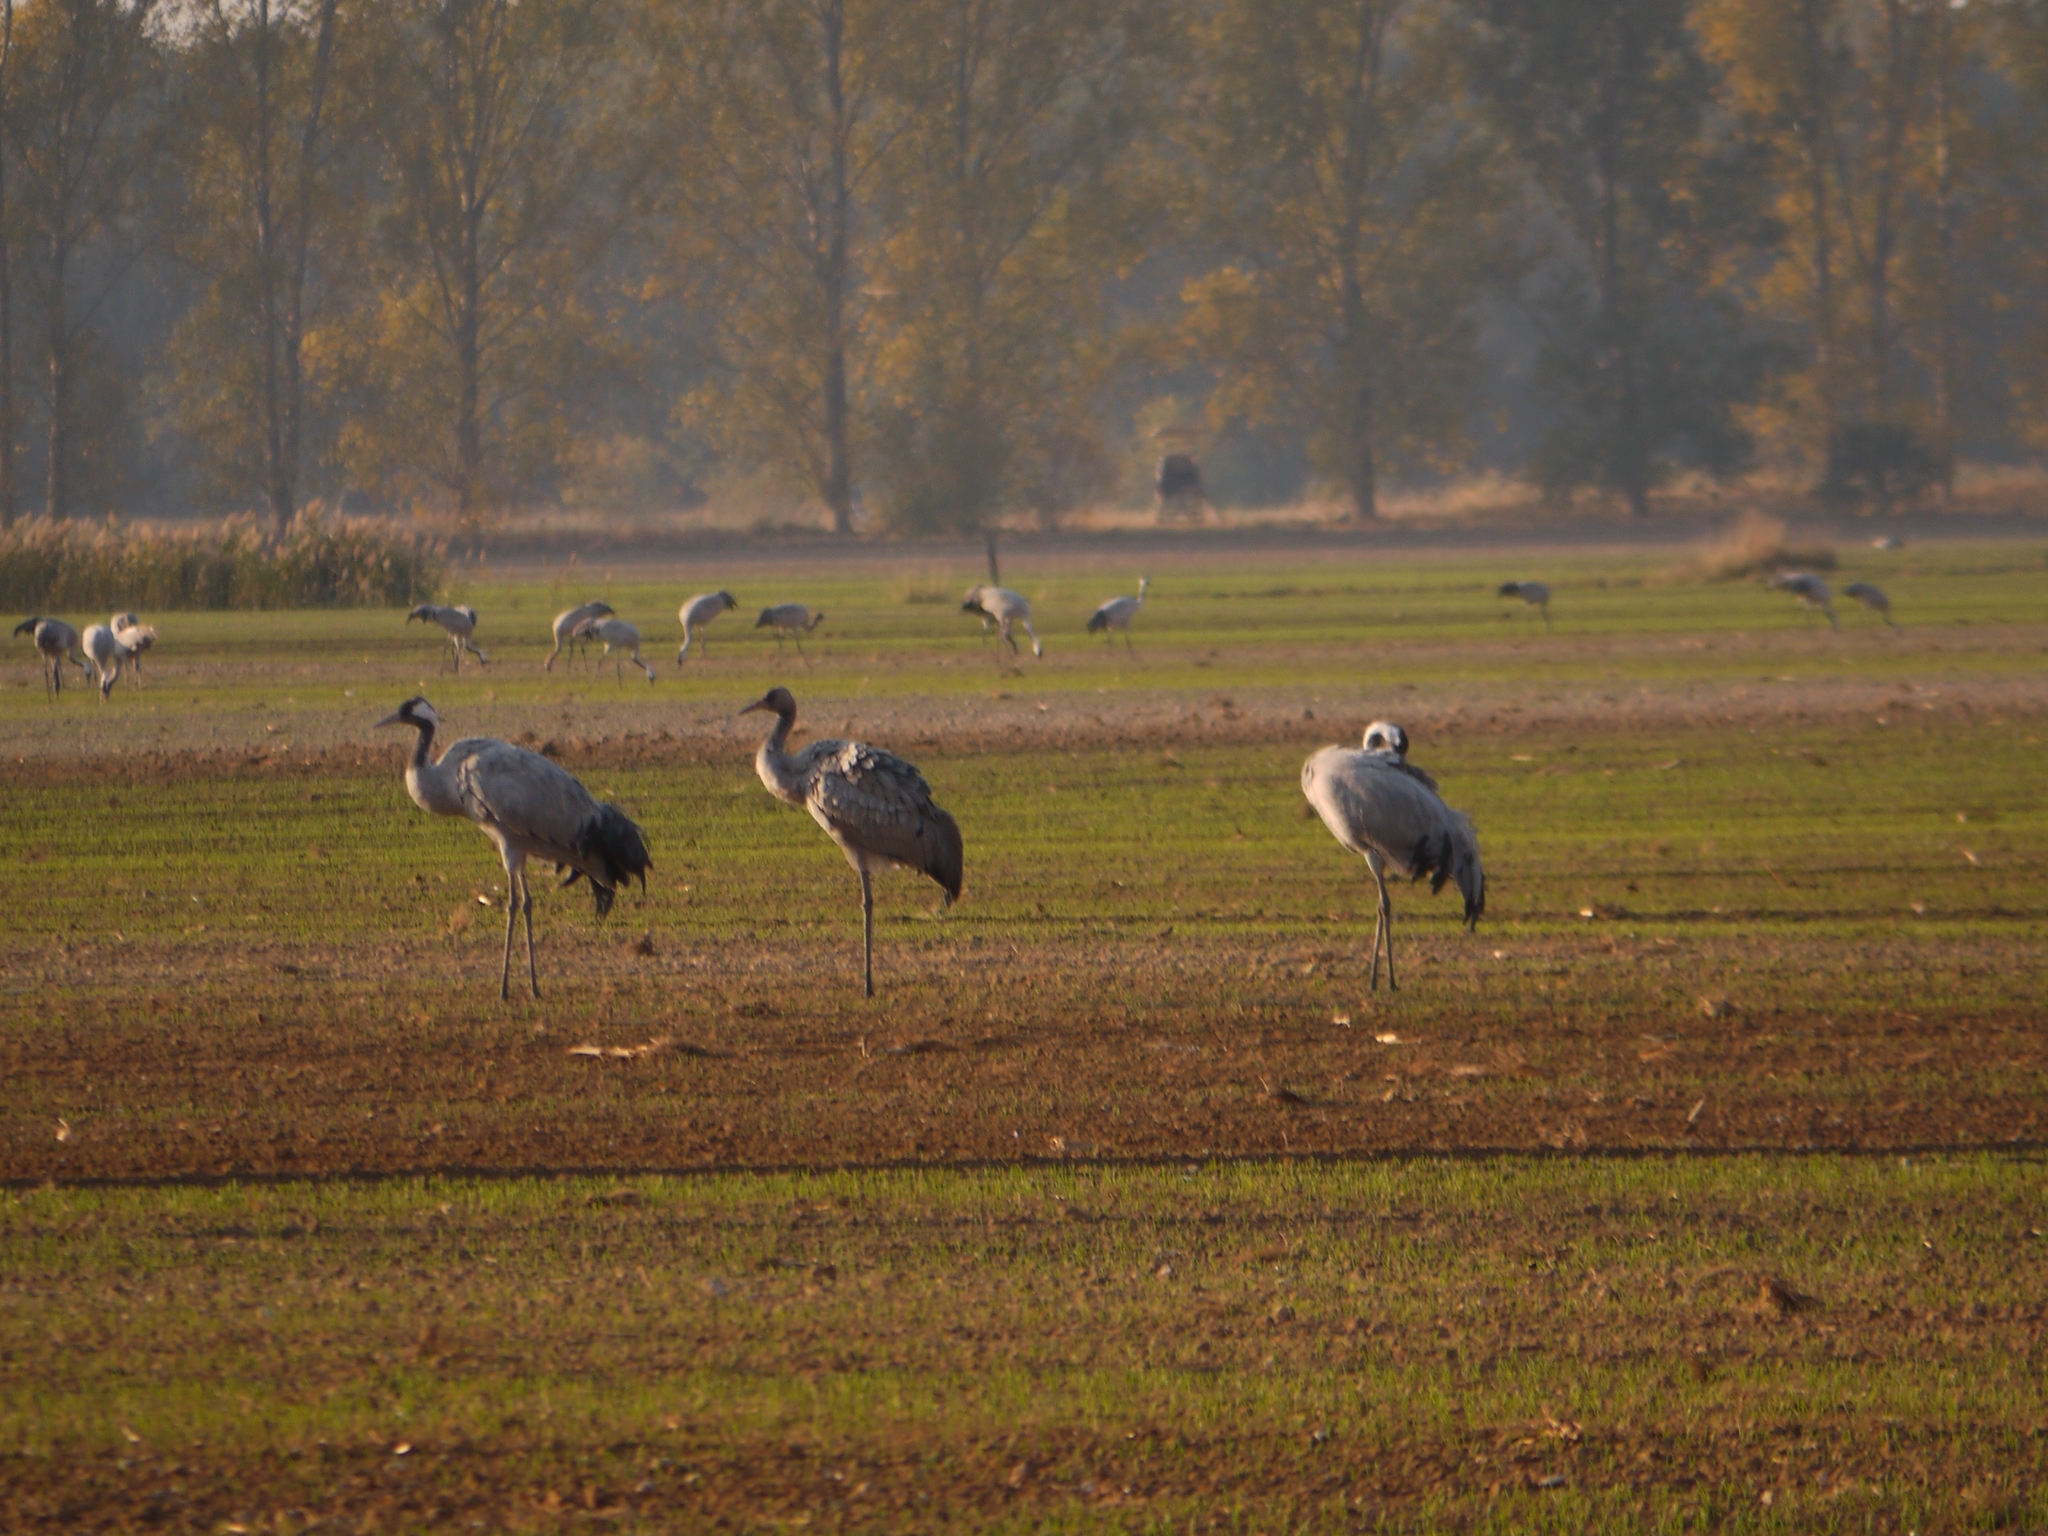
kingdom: Animalia
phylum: Chordata
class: Aves
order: Gruiformes
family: Gruidae
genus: Grus
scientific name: Grus grus
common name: Common crane
